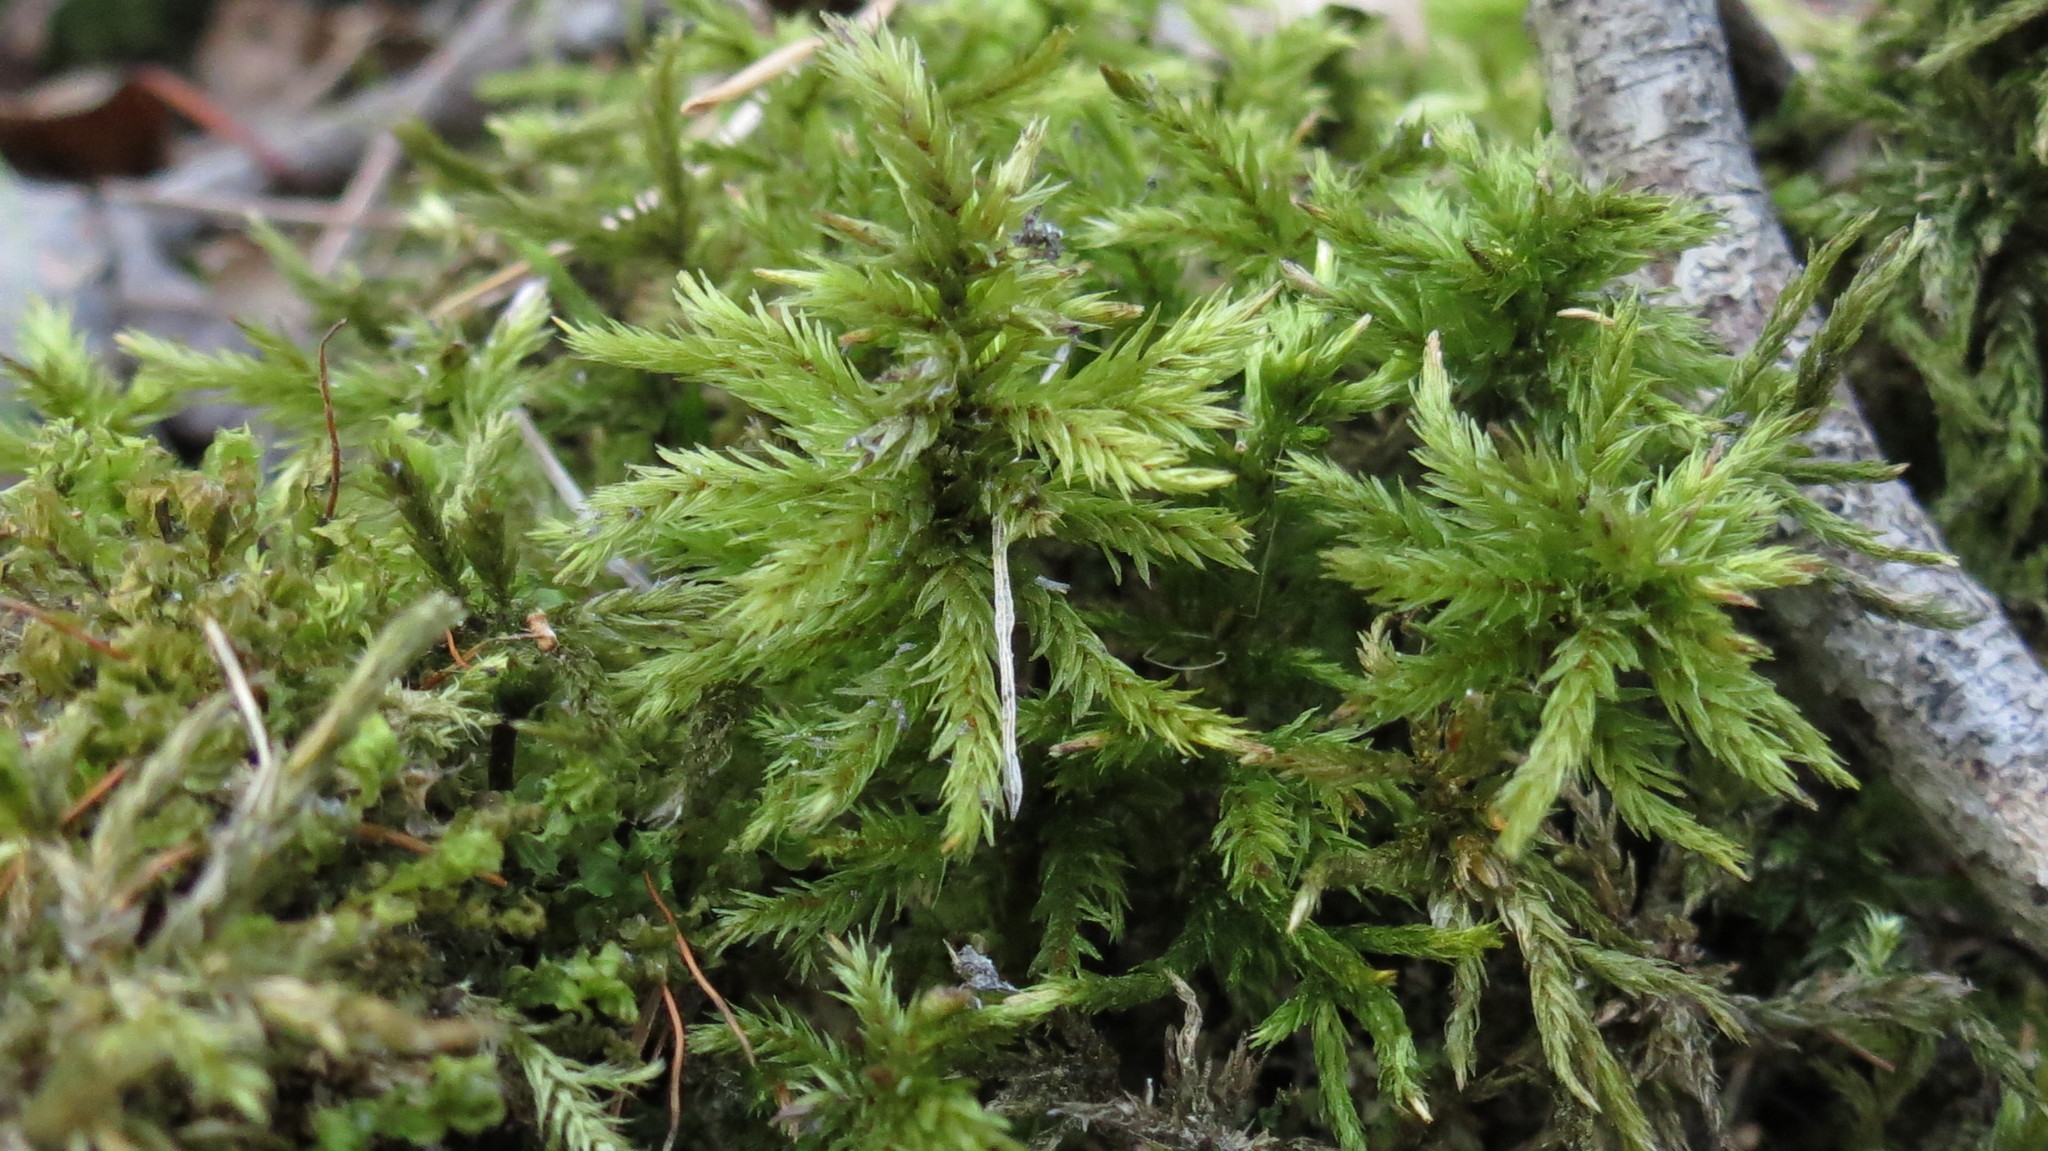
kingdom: Plantae
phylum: Bryophyta
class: Bryopsida
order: Hypnales
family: Climaciaceae
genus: Climacium
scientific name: Climacium dendroides
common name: Northern tree moss
